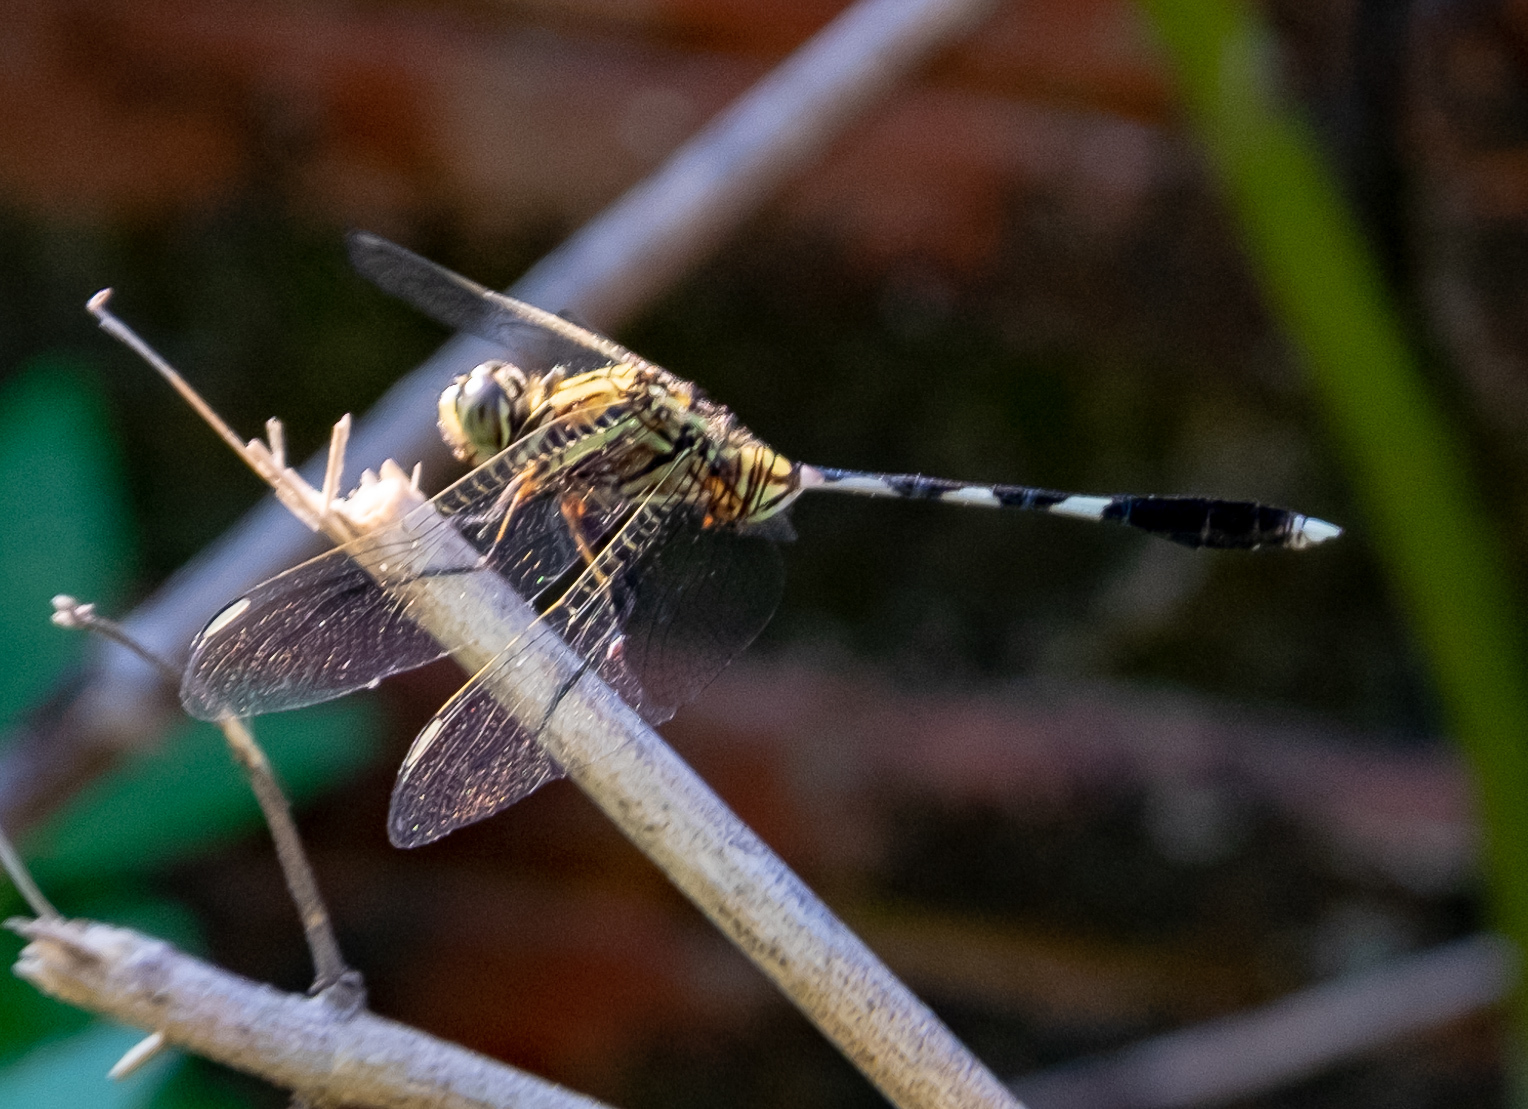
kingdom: Animalia
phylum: Arthropoda
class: Insecta
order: Odonata
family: Libellulidae
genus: Orthetrum
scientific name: Orthetrum sabina
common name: Slender skimmer
